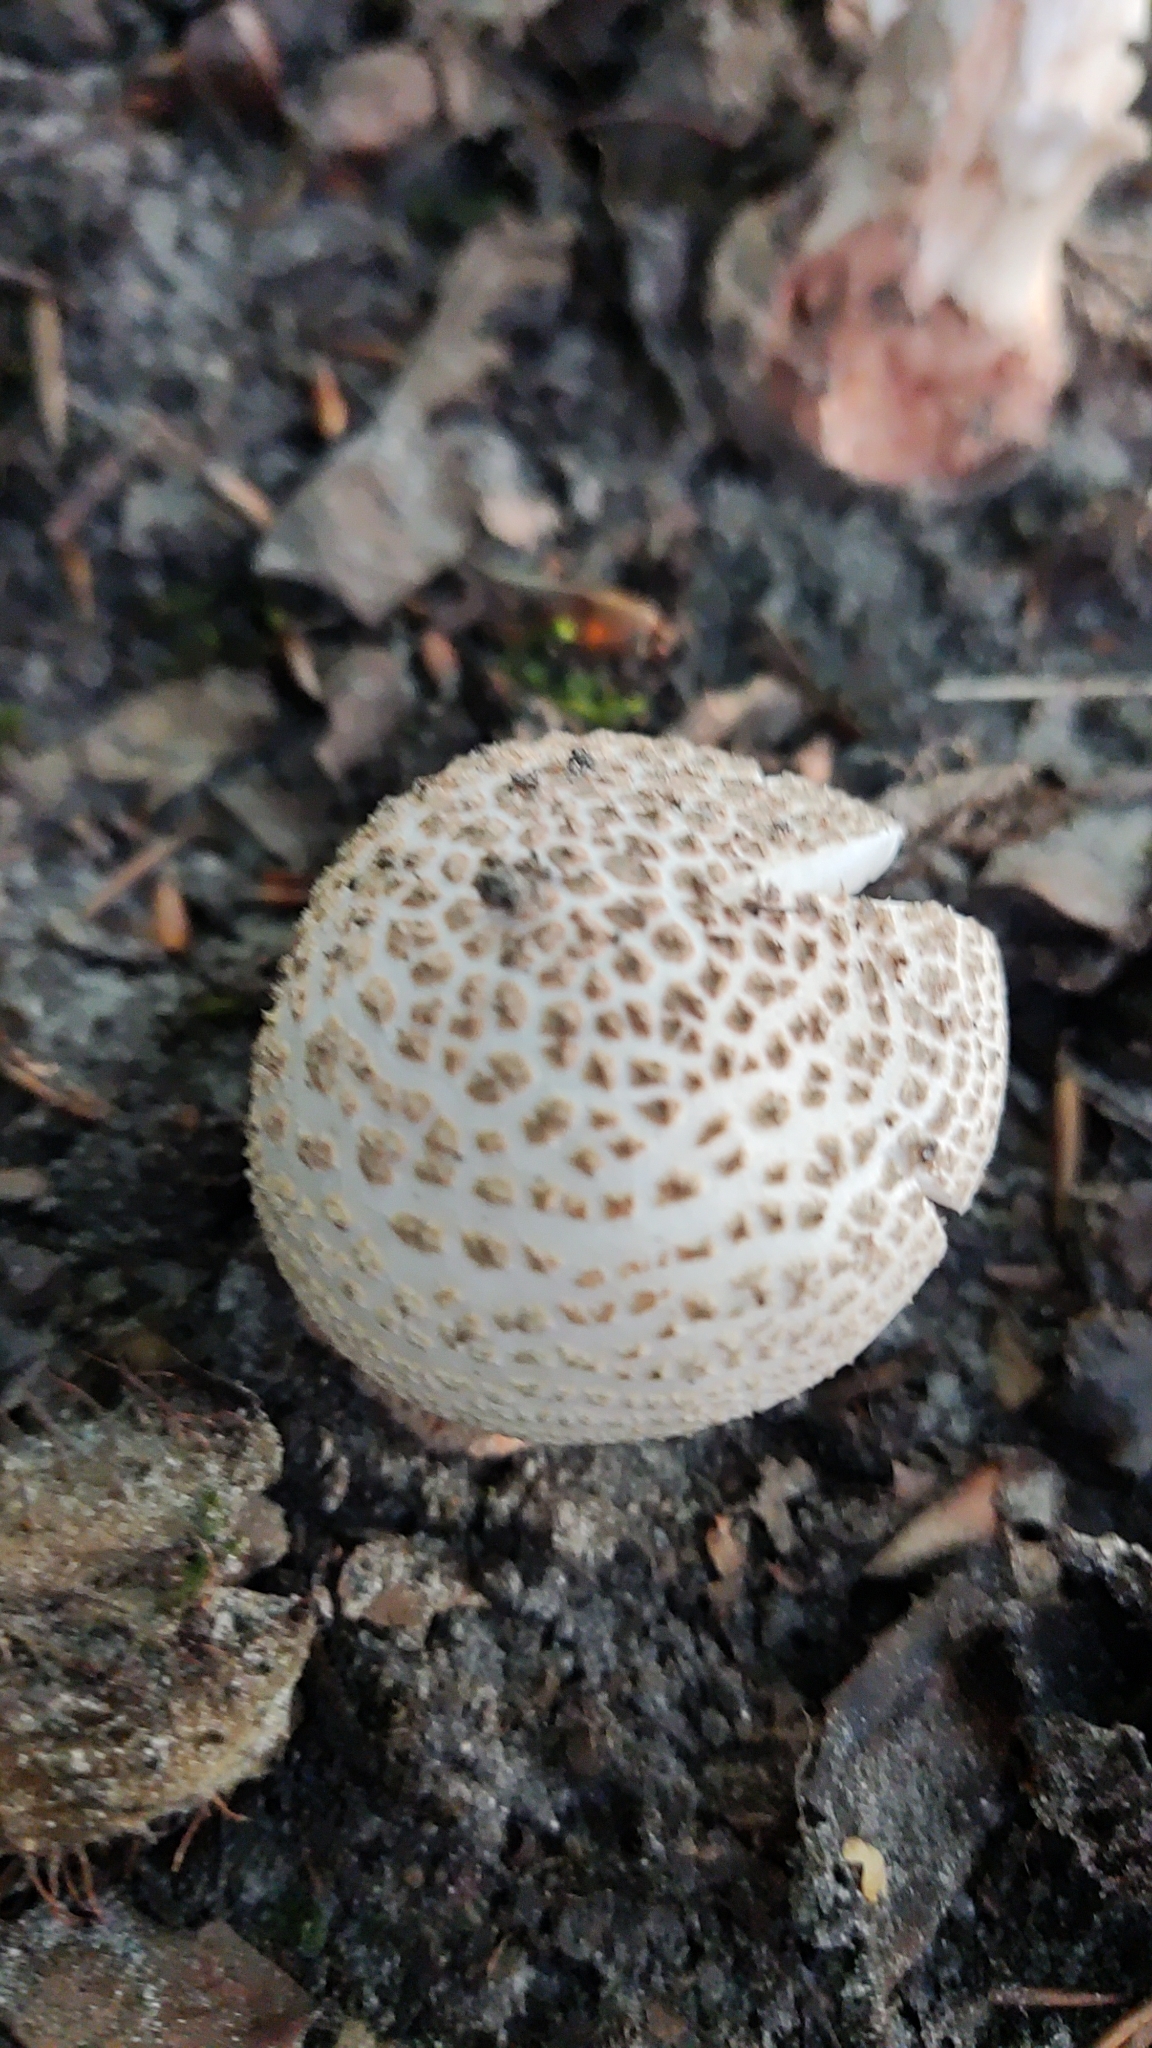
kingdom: Fungi
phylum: Basidiomycota
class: Agaricomycetes
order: Agaricales
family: Amanitaceae
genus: Amanita
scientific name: Amanita rubescens
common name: Blusher
